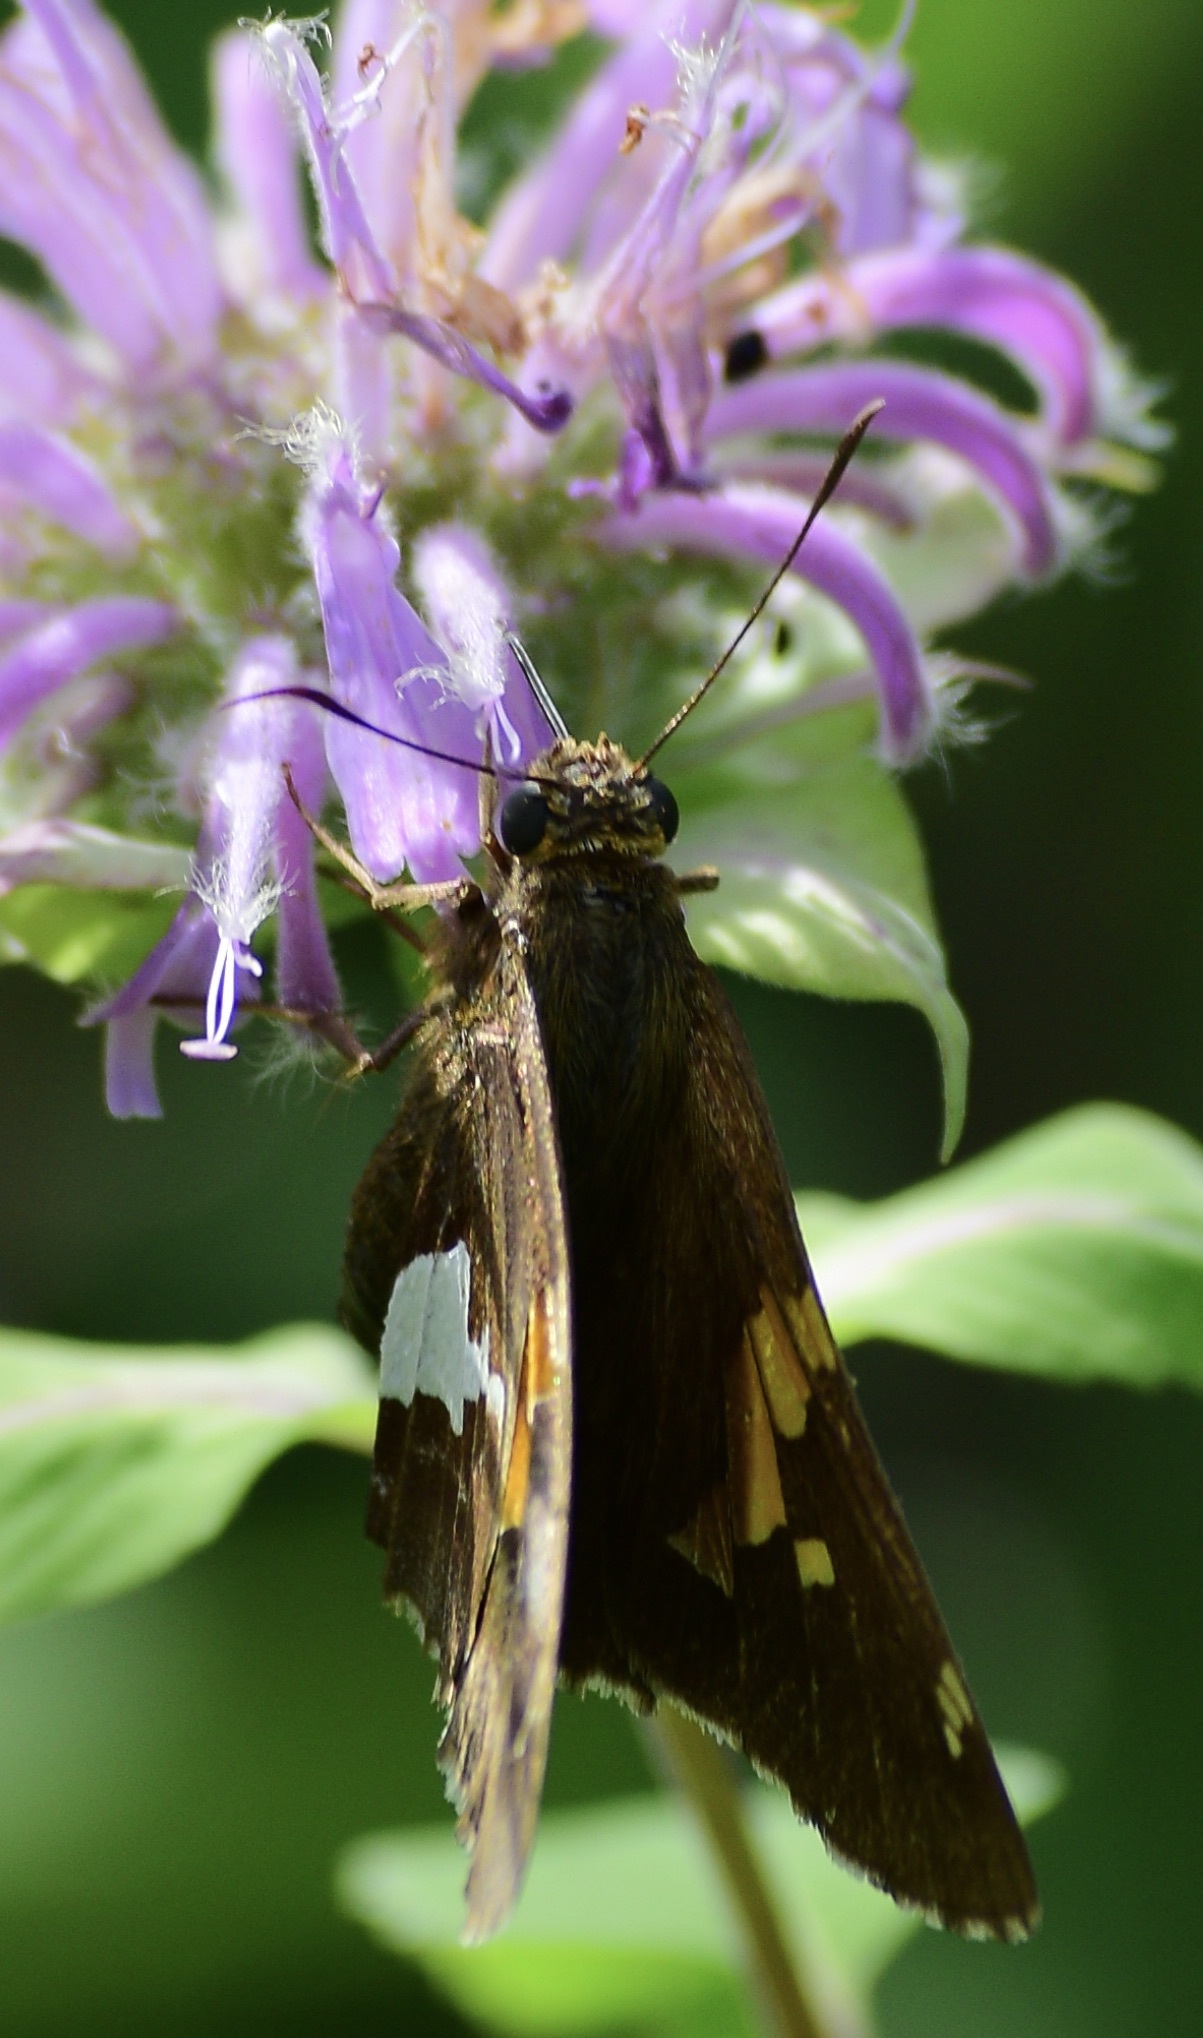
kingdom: Animalia
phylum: Arthropoda
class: Insecta
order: Lepidoptera
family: Hesperiidae
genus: Epargyreus
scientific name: Epargyreus clarus
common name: Silver-spotted skipper
